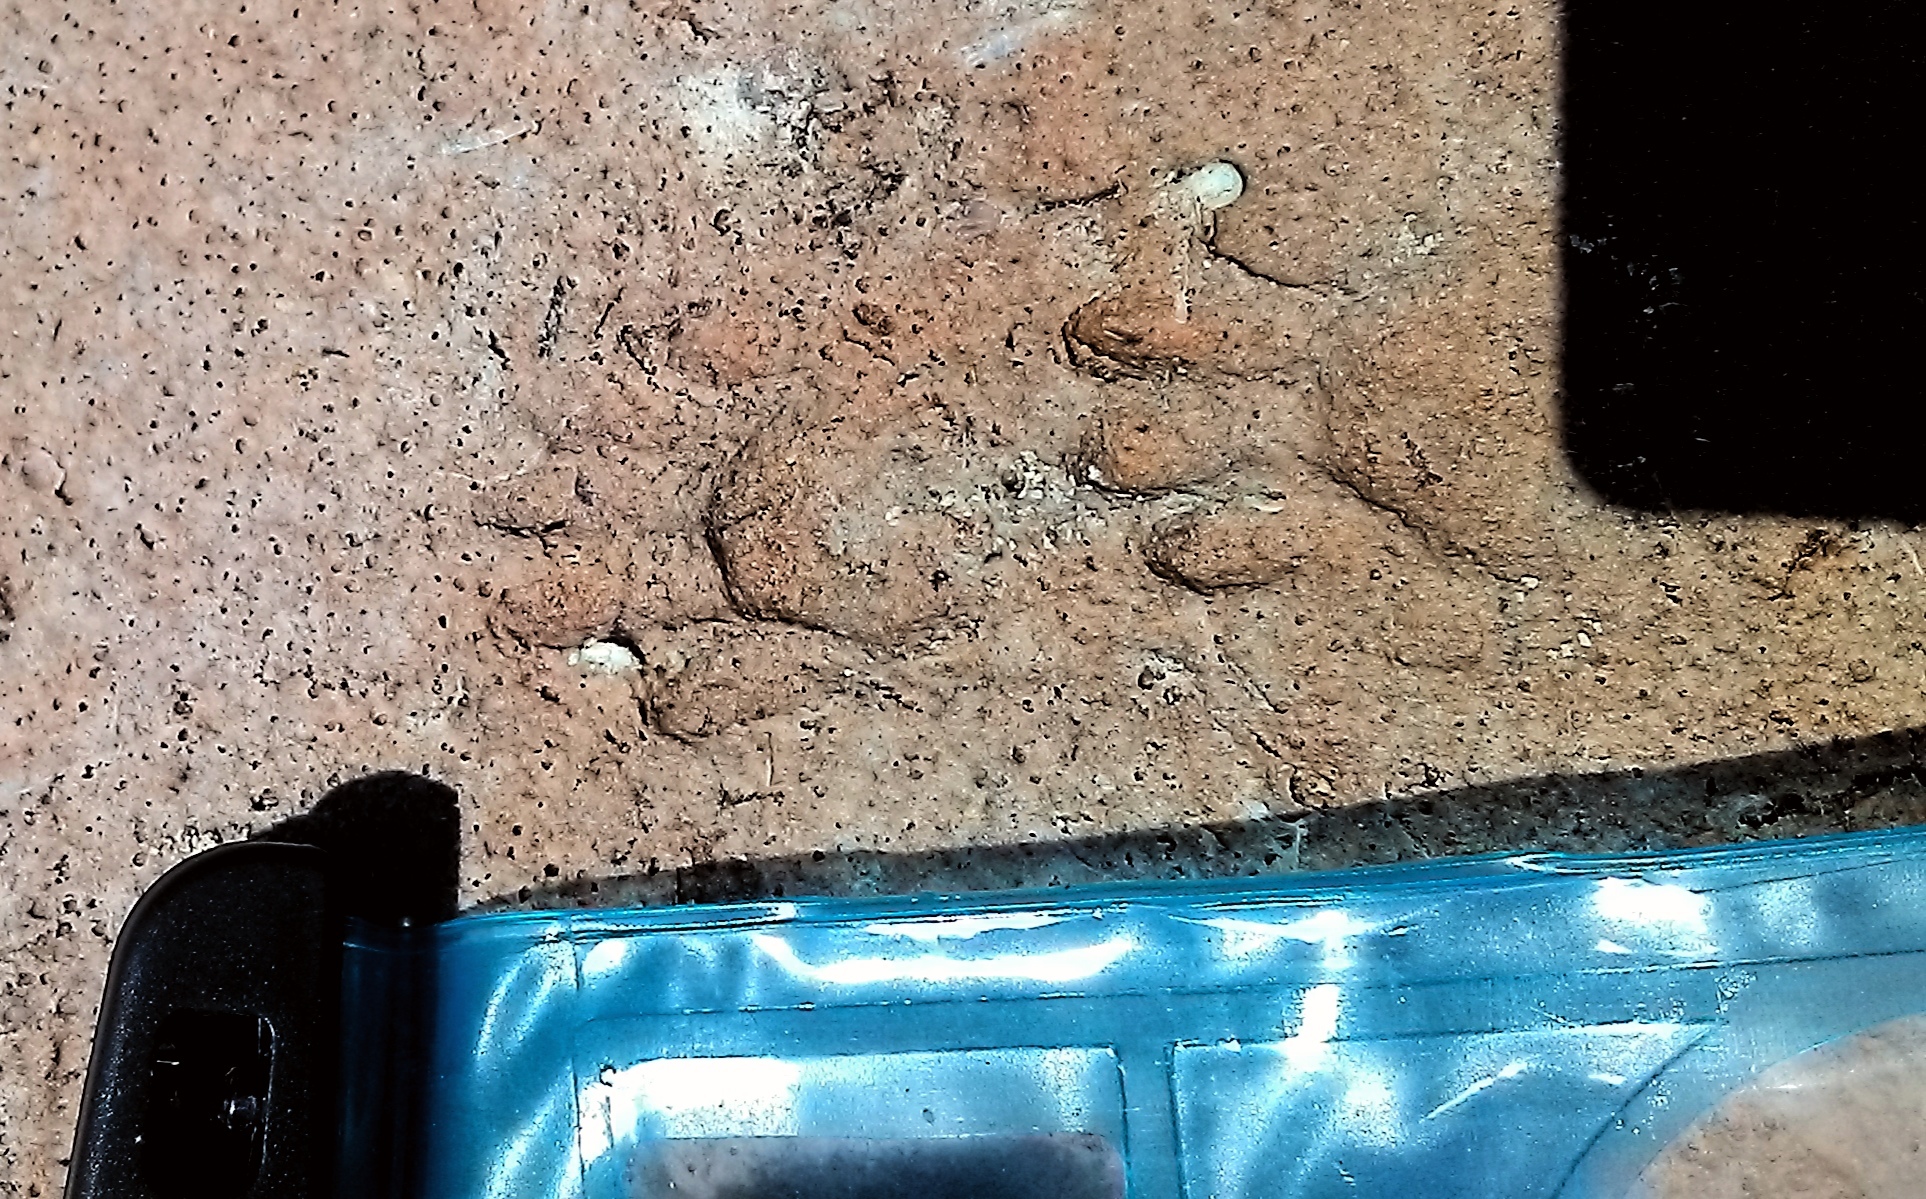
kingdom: Animalia
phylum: Chordata
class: Mammalia
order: Carnivora
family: Procyonidae
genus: Procyon
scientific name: Procyon lotor
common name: Raccoon
